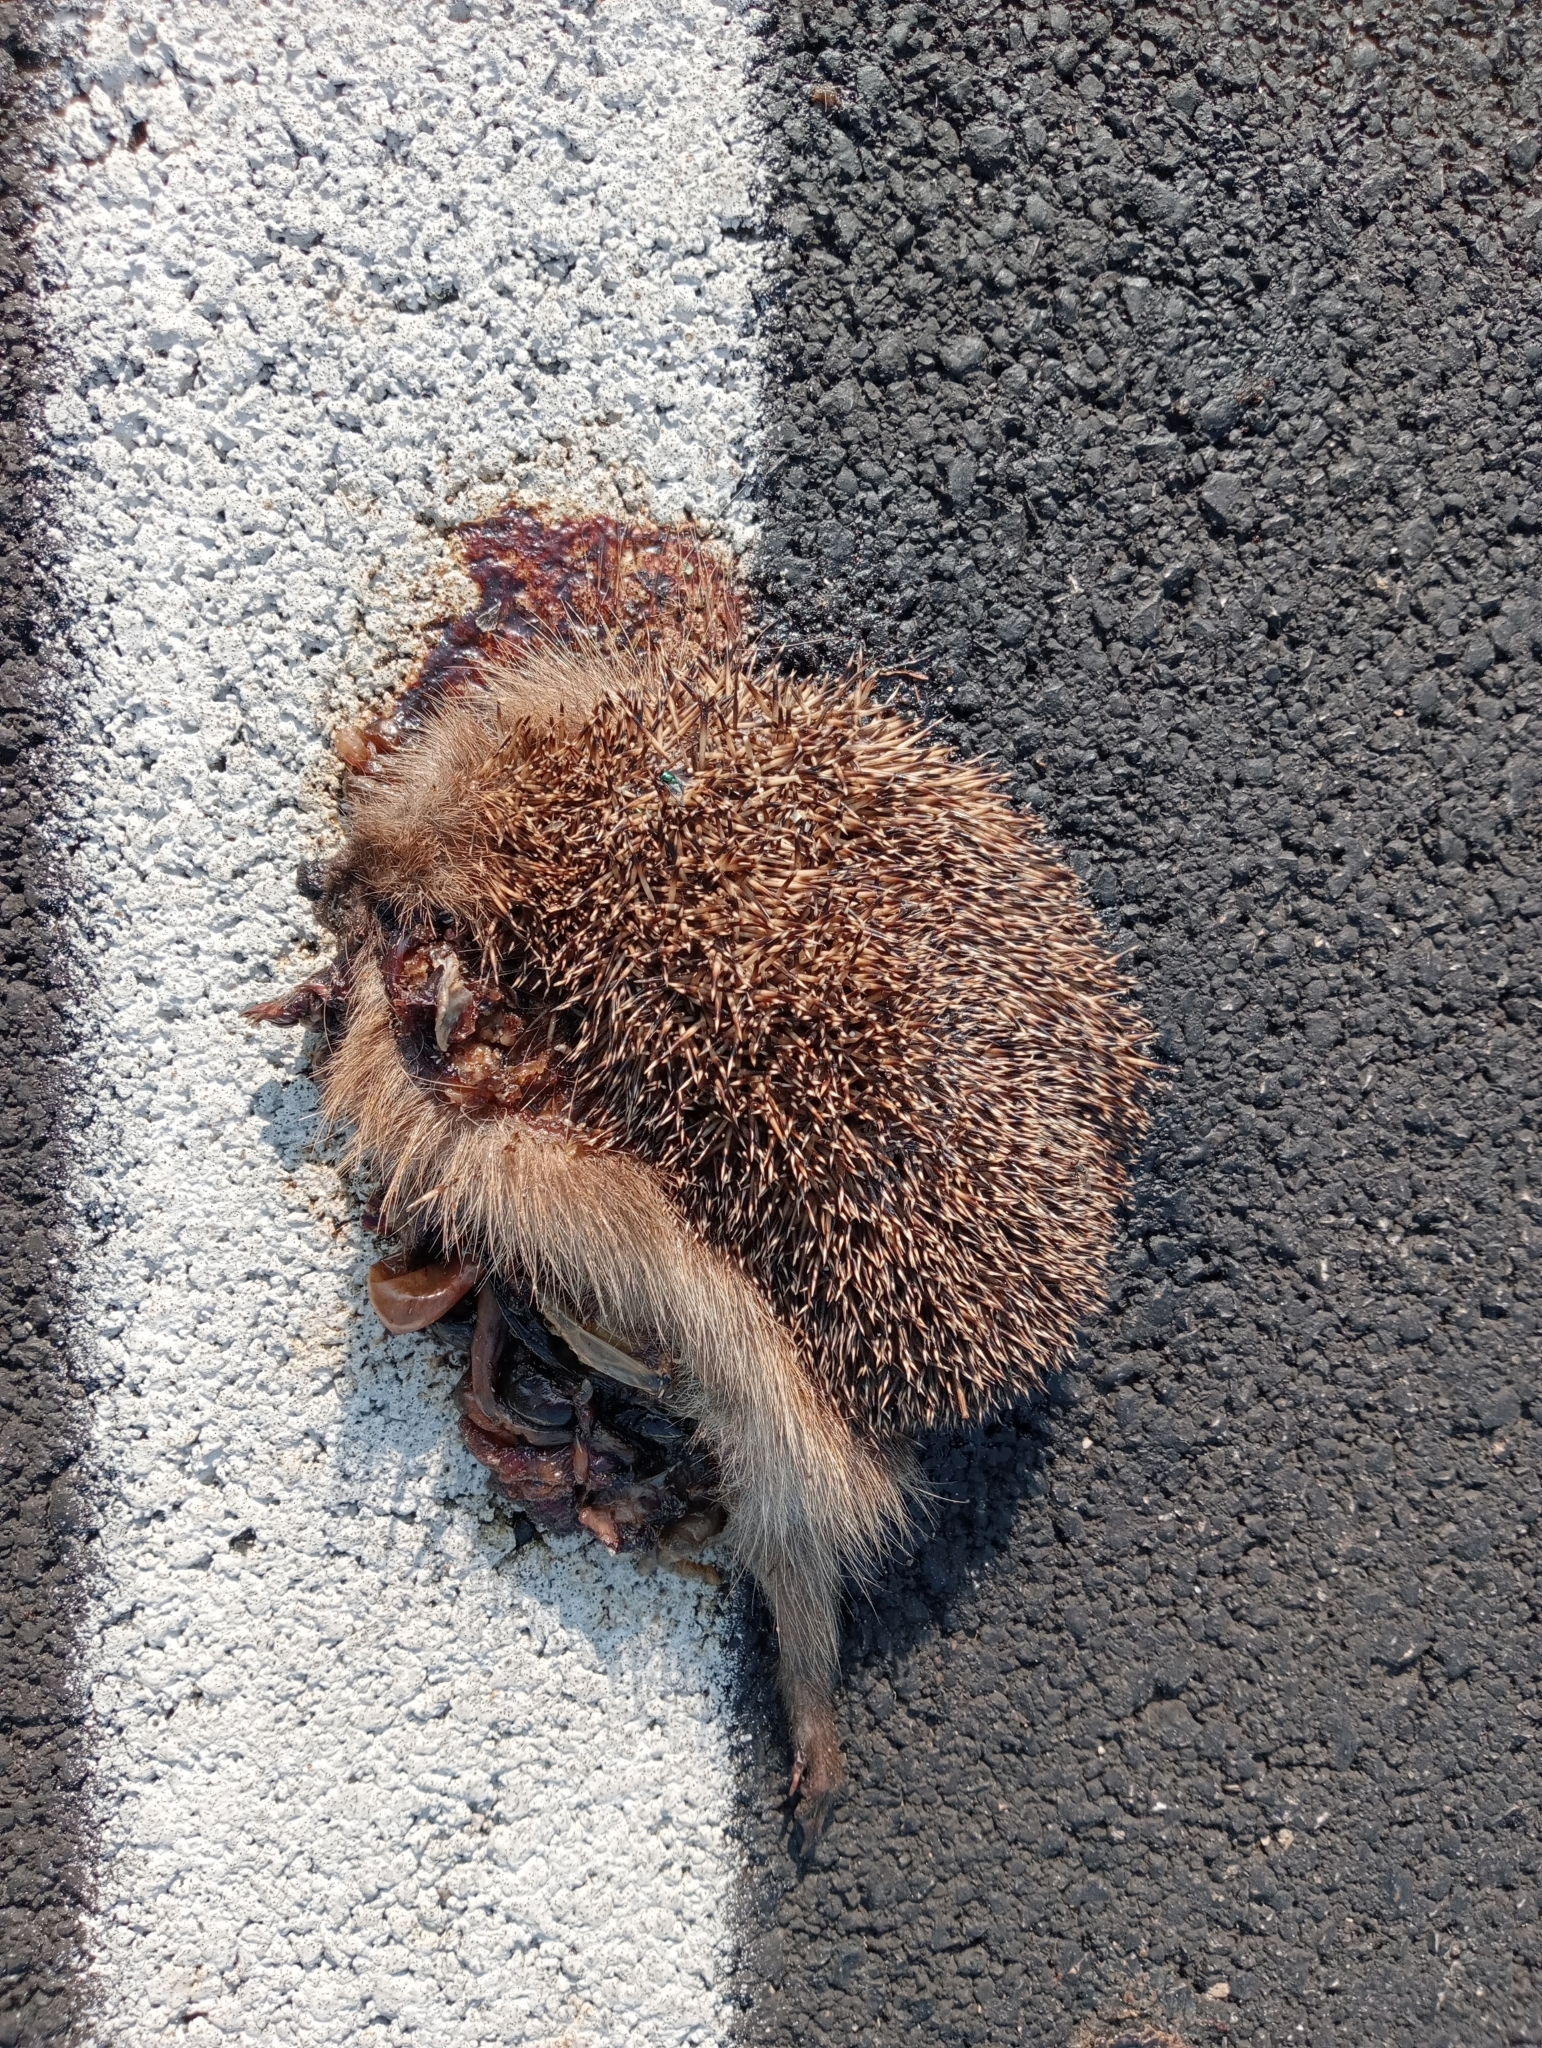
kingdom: Animalia
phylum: Chordata
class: Mammalia
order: Erinaceomorpha
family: Erinaceidae
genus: Erinaceus
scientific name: Erinaceus europaeus
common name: West european hedgehog
